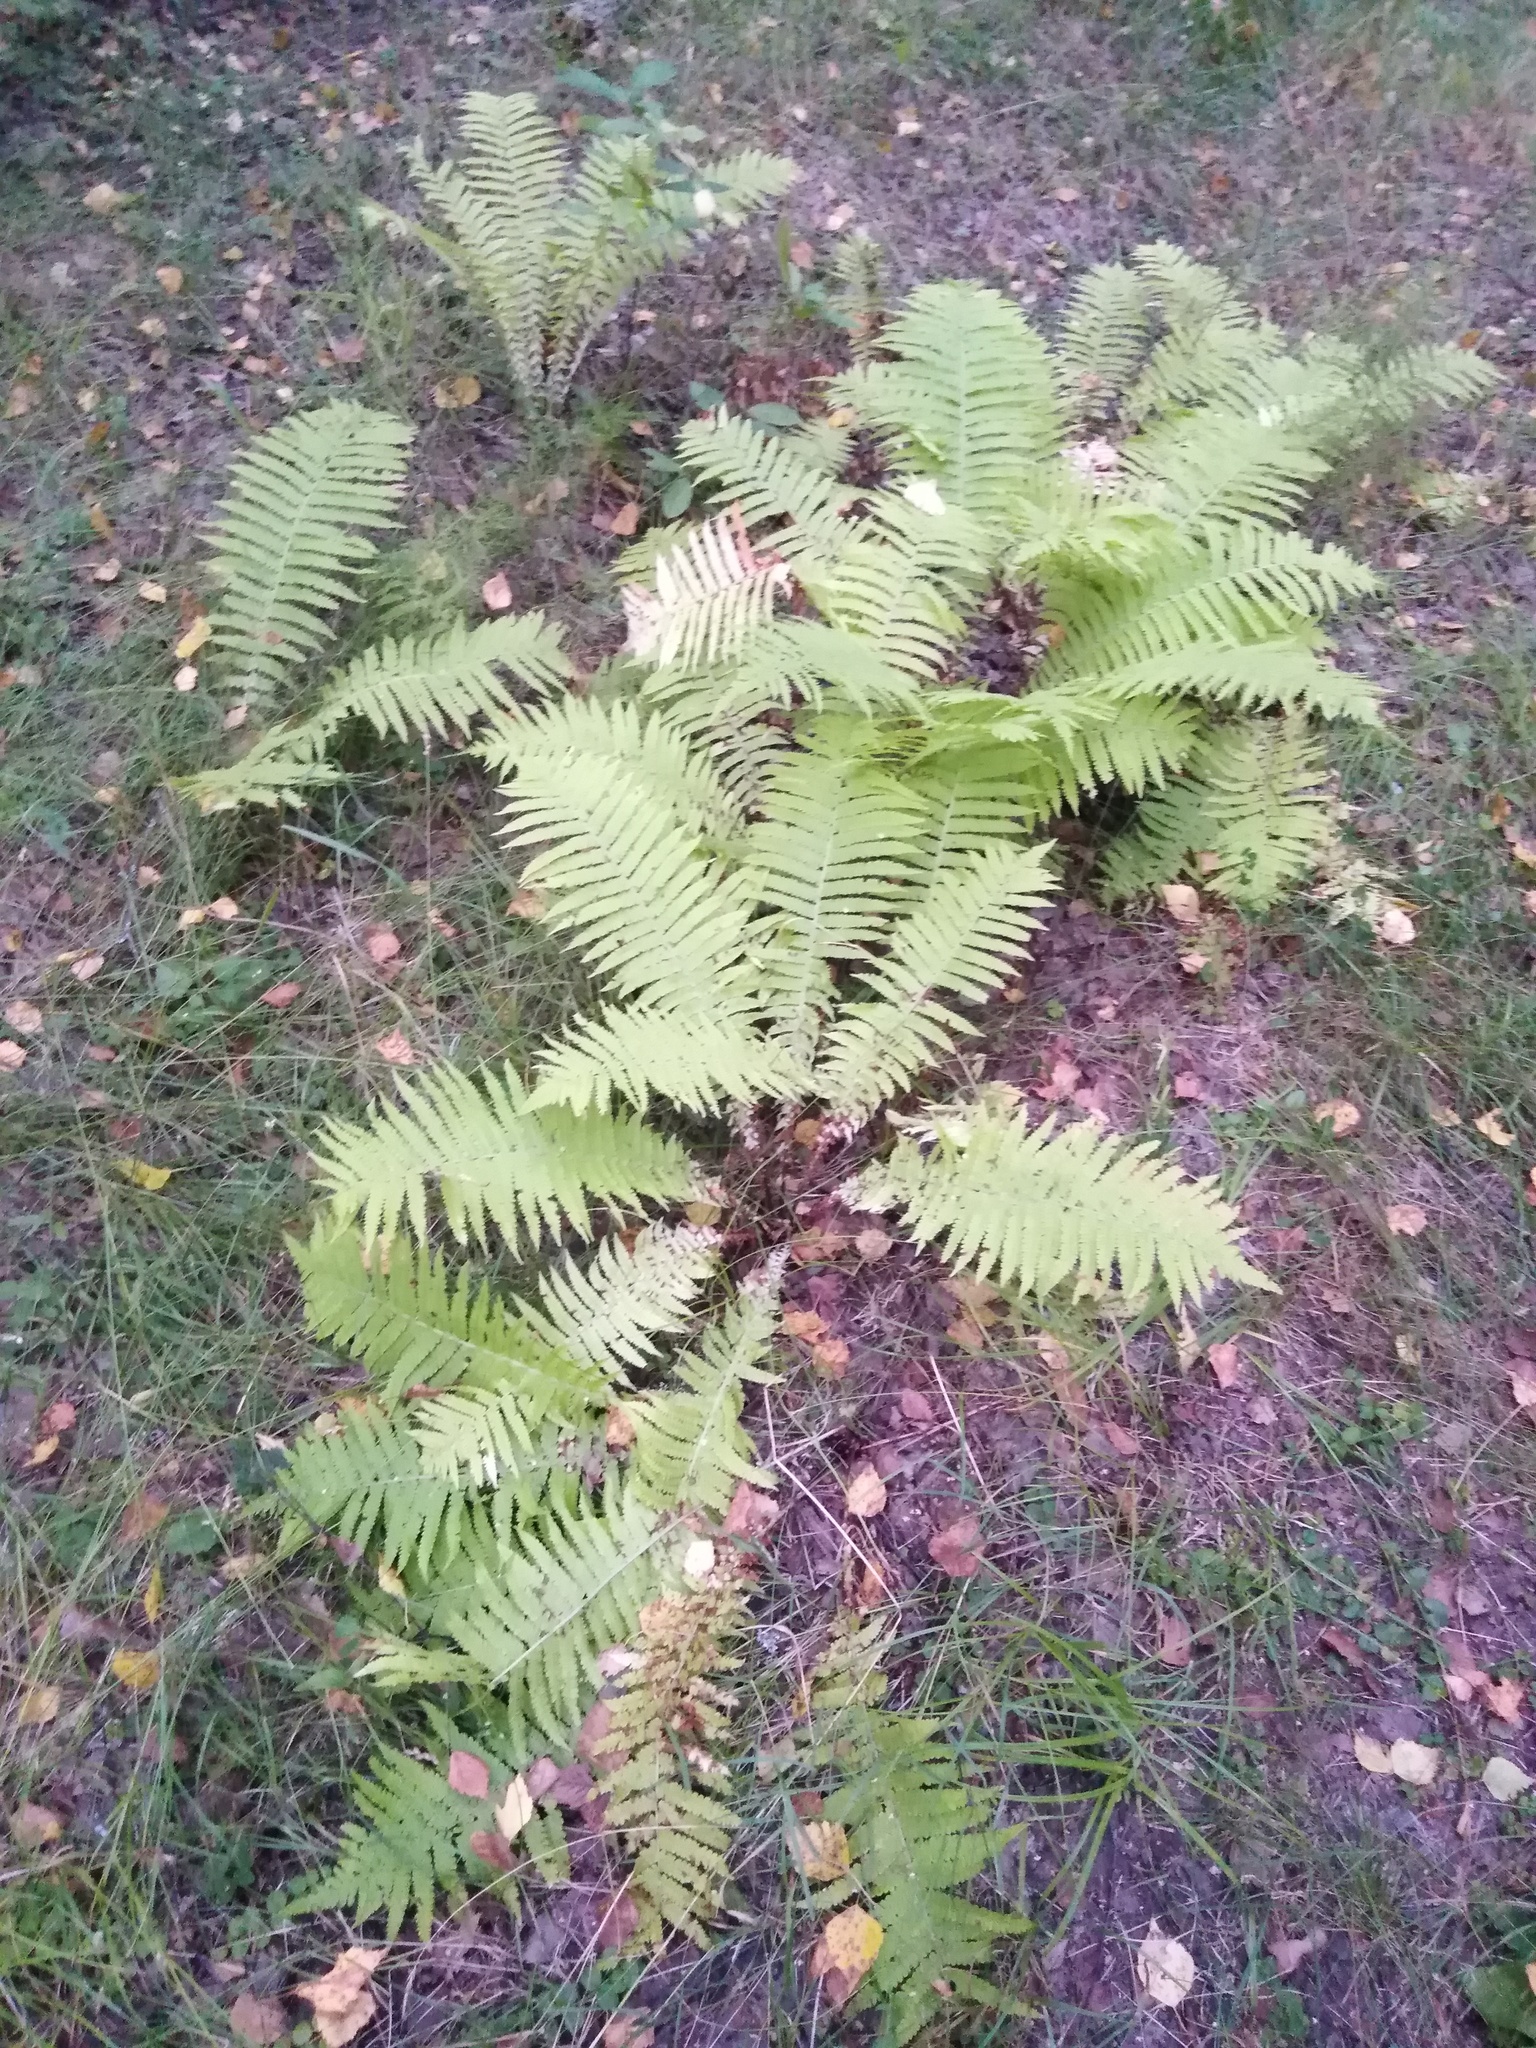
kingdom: Plantae
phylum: Tracheophyta
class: Polypodiopsida
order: Polypodiales
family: Onocleaceae
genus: Matteuccia
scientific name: Matteuccia struthiopteris
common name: Ostrich fern
